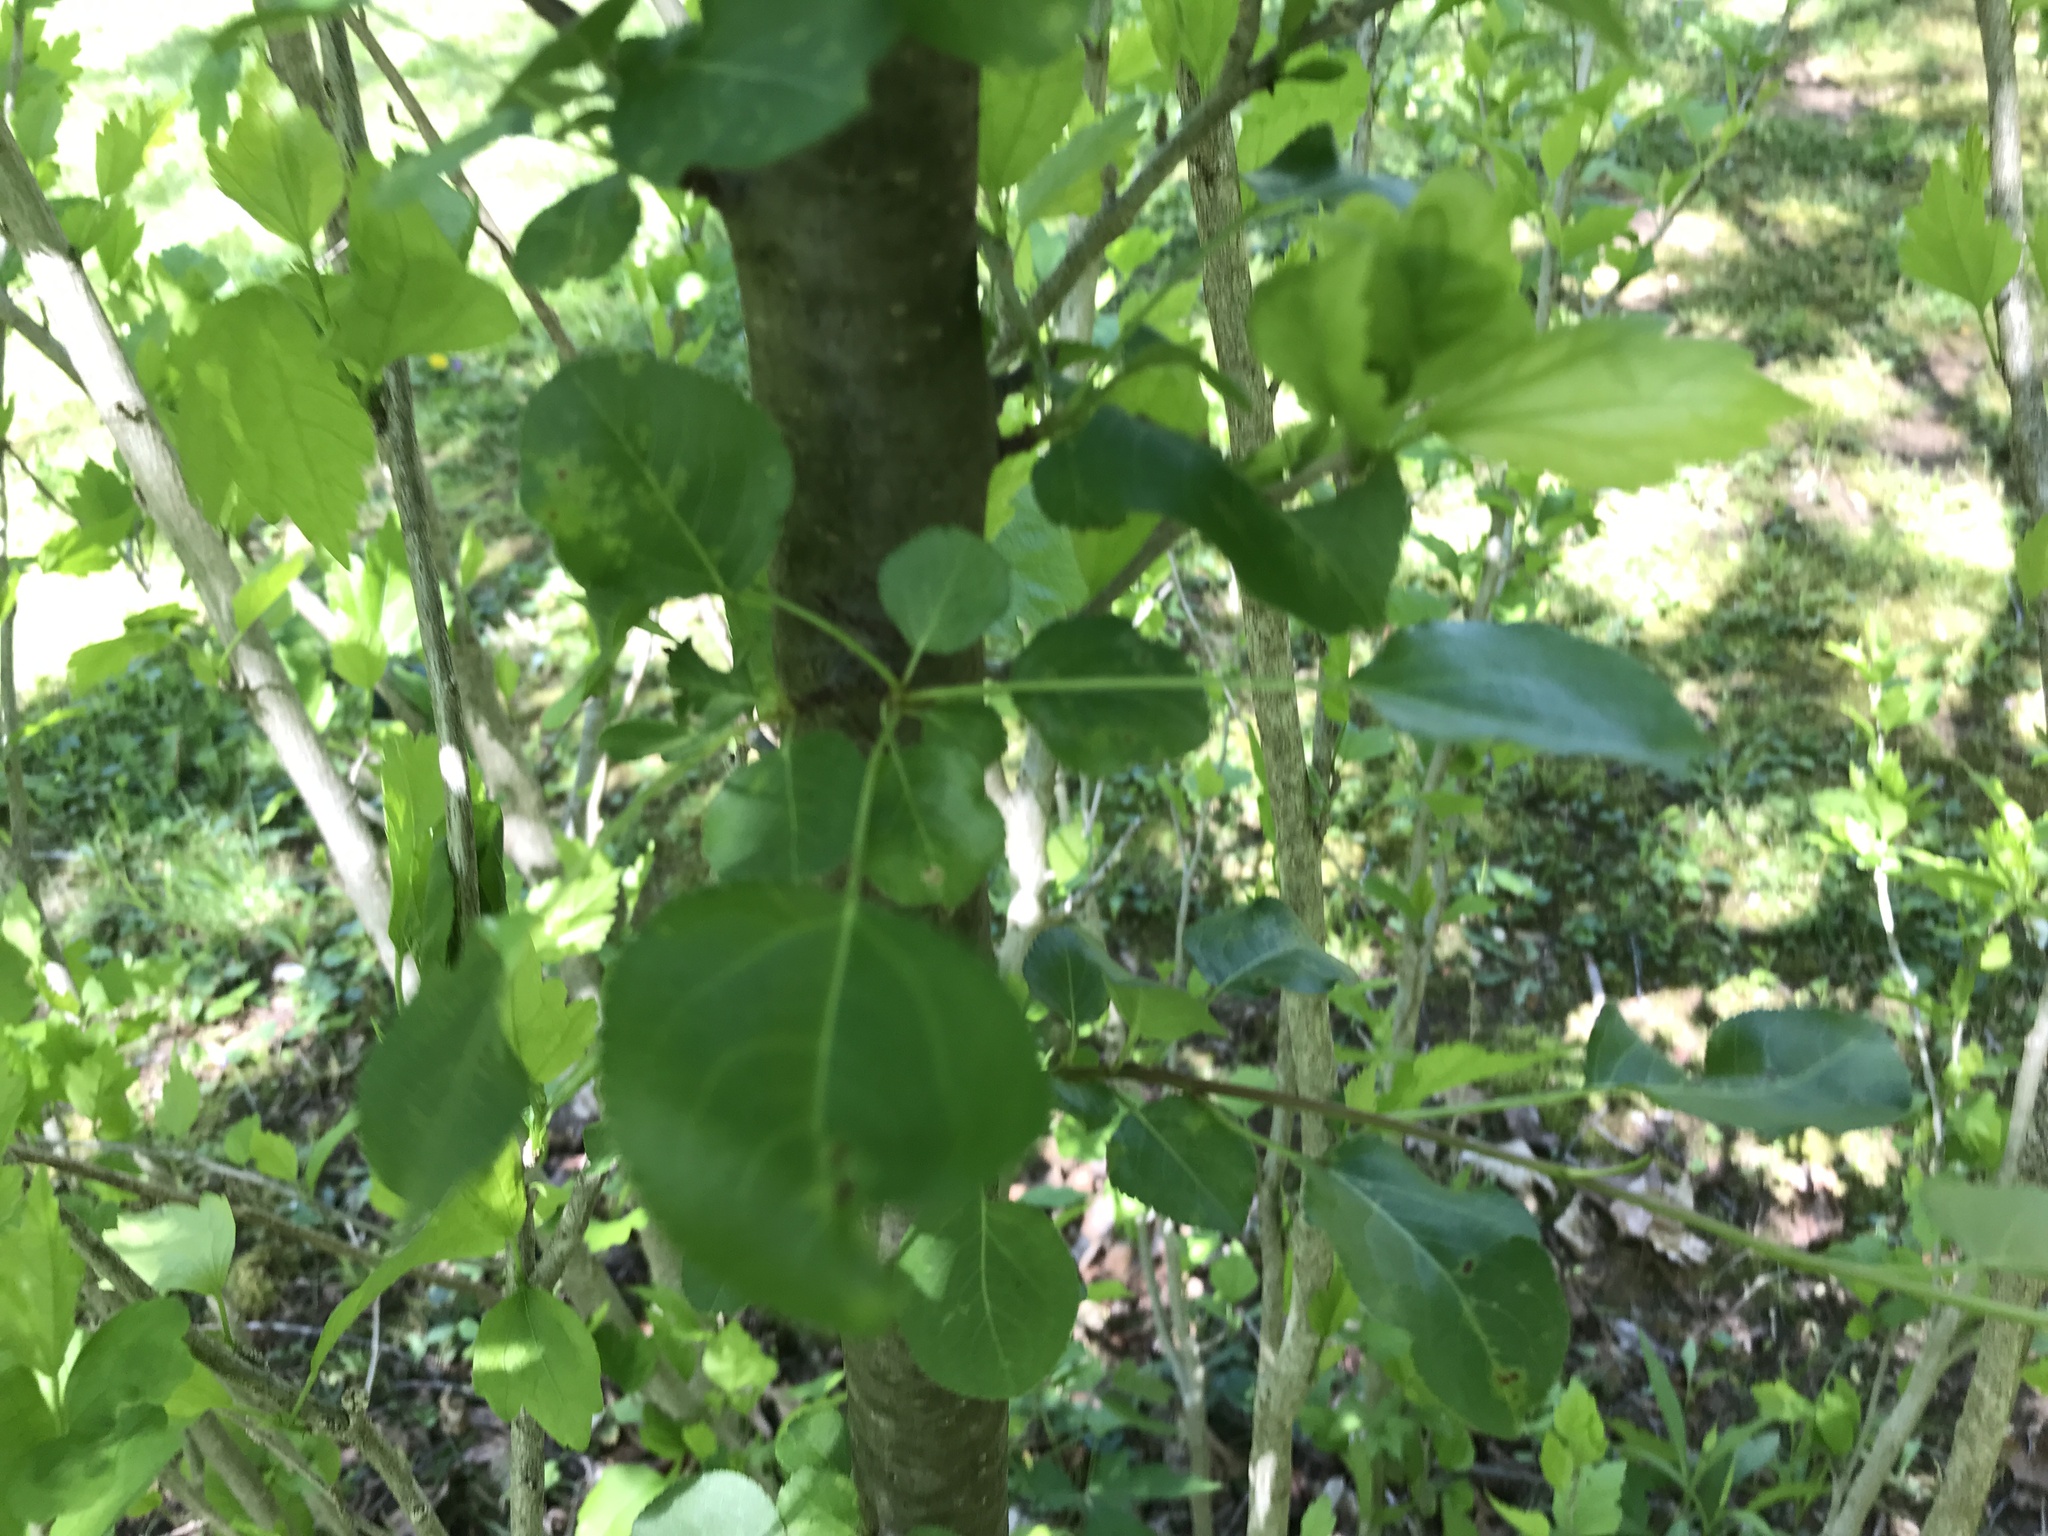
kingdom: Plantae
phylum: Tracheophyta
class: Magnoliopsida
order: Rosales
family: Rosaceae
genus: Pyrus
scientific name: Pyrus calleryana
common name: Callery pear
